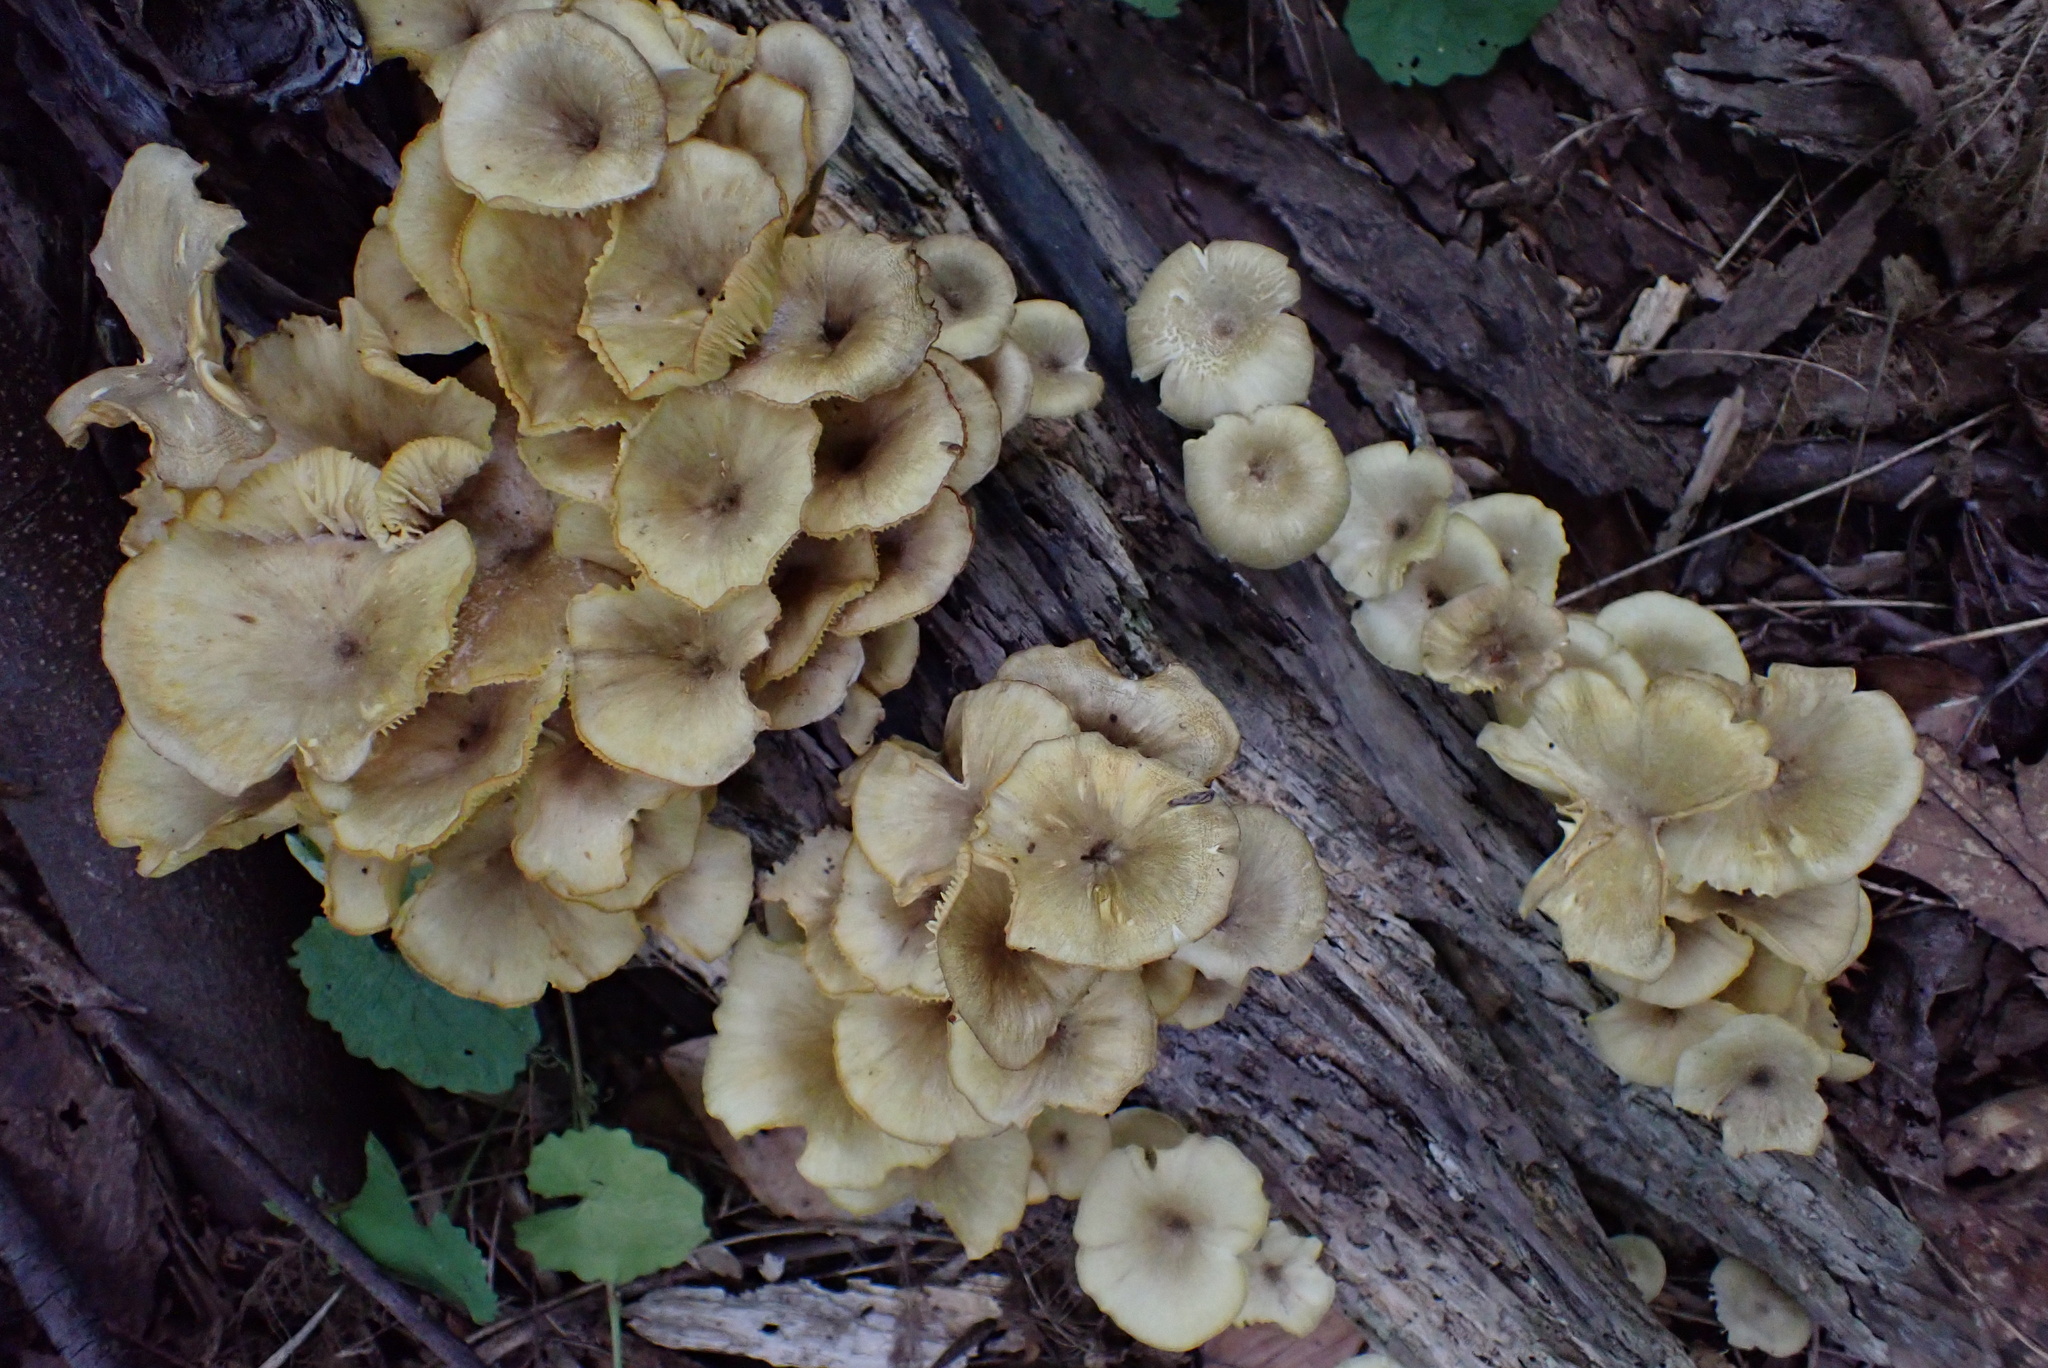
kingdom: Fungi
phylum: Basidiomycota
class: Agaricomycetes
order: Agaricales
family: Marasmiaceae
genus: Gerronema
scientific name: Gerronema strombodes
